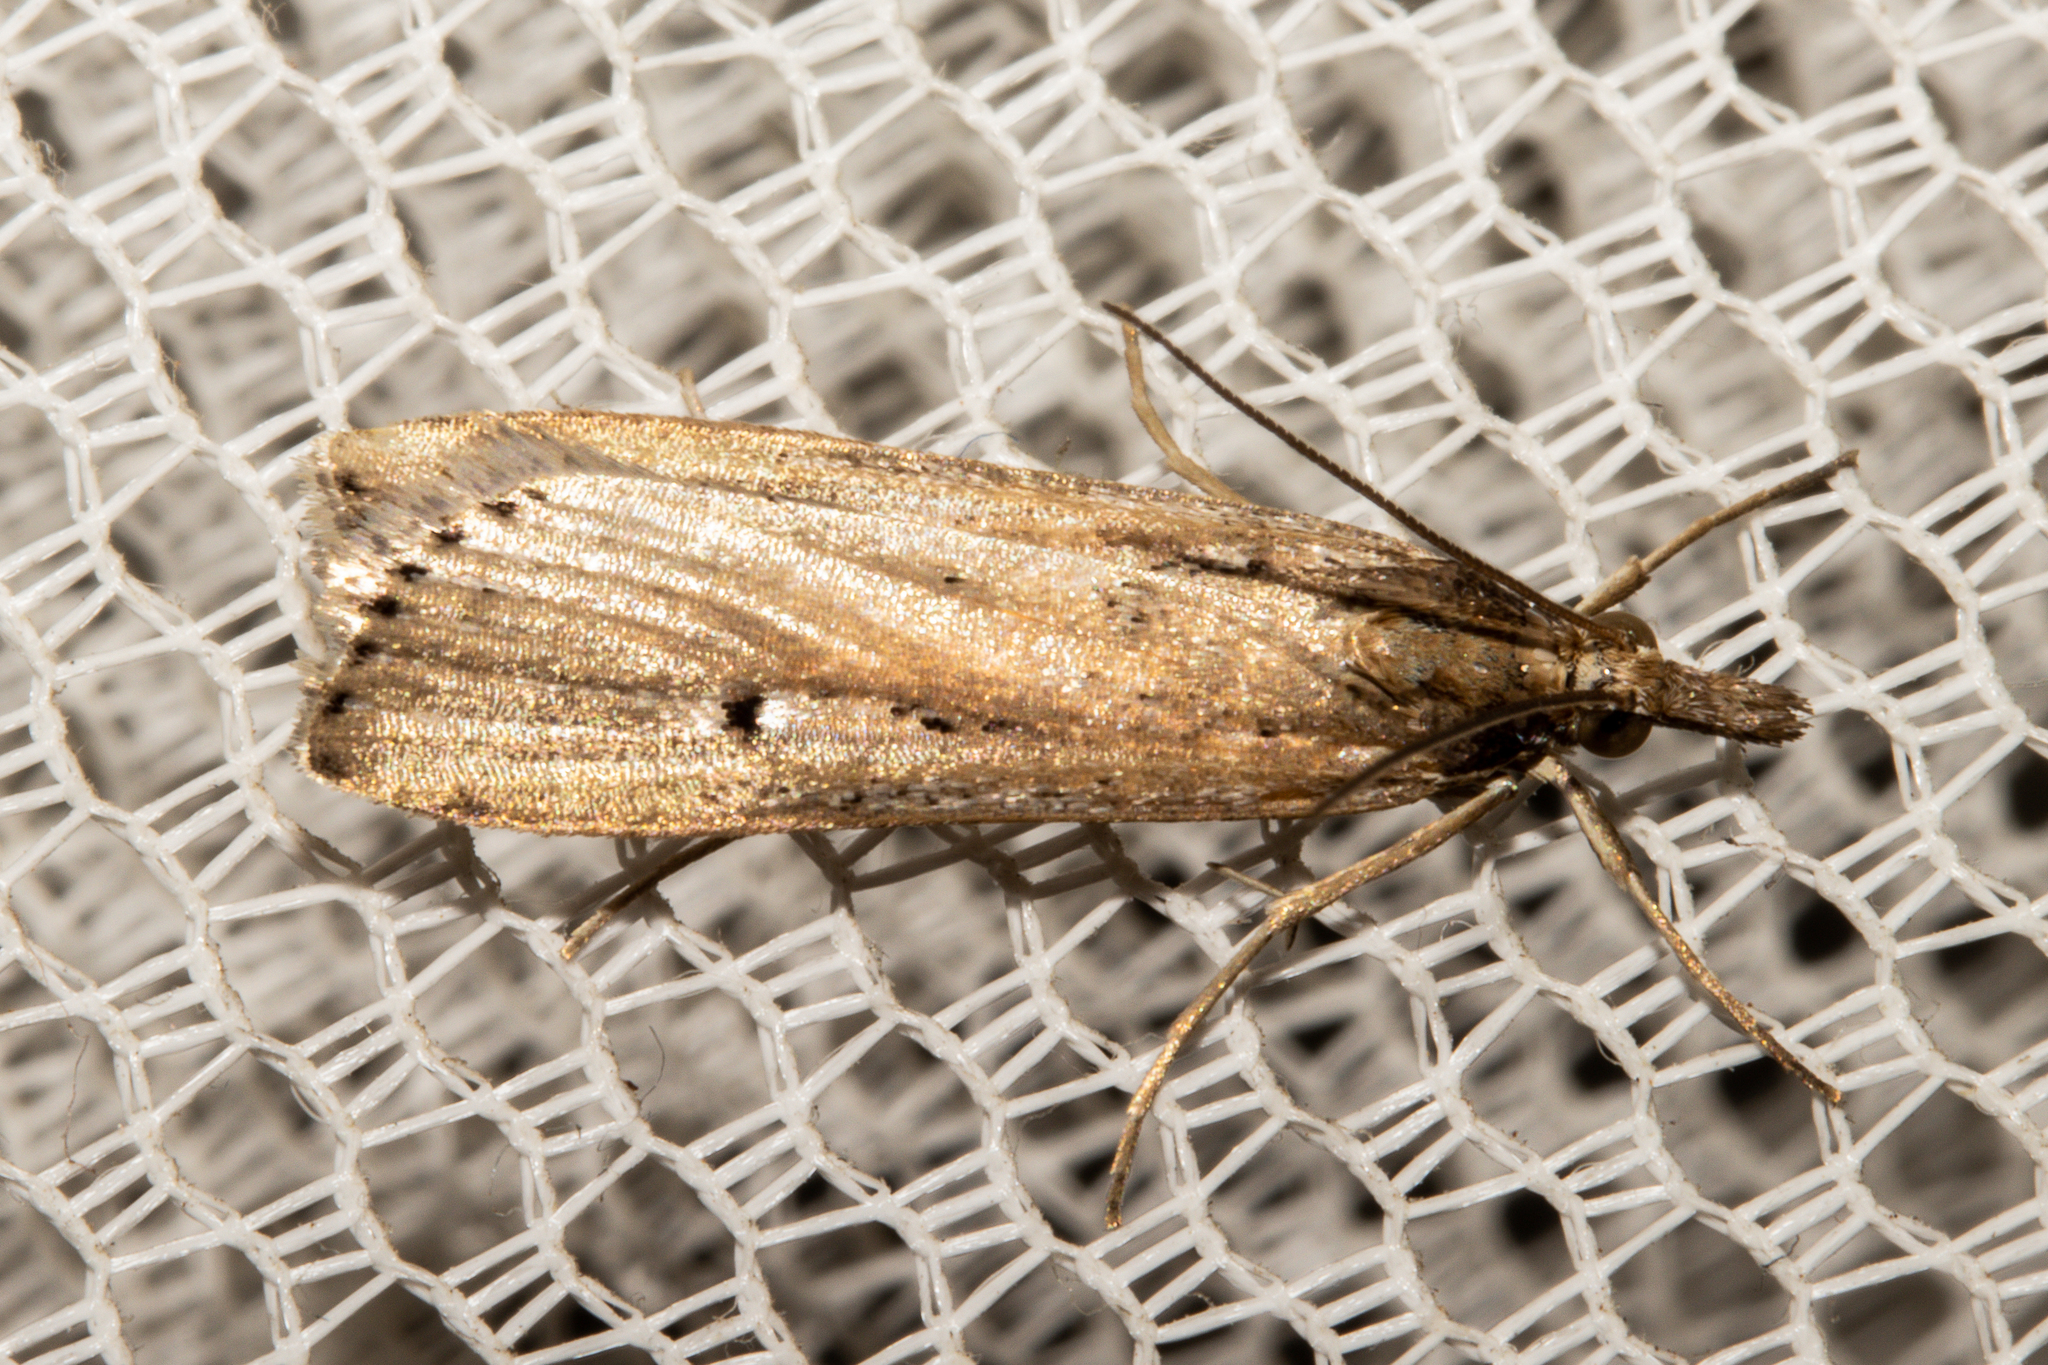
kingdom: Animalia
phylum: Arthropoda
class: Insecta
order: Lepidoptera
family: Crambidae
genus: Eudonia
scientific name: Eudonia sabulosella
